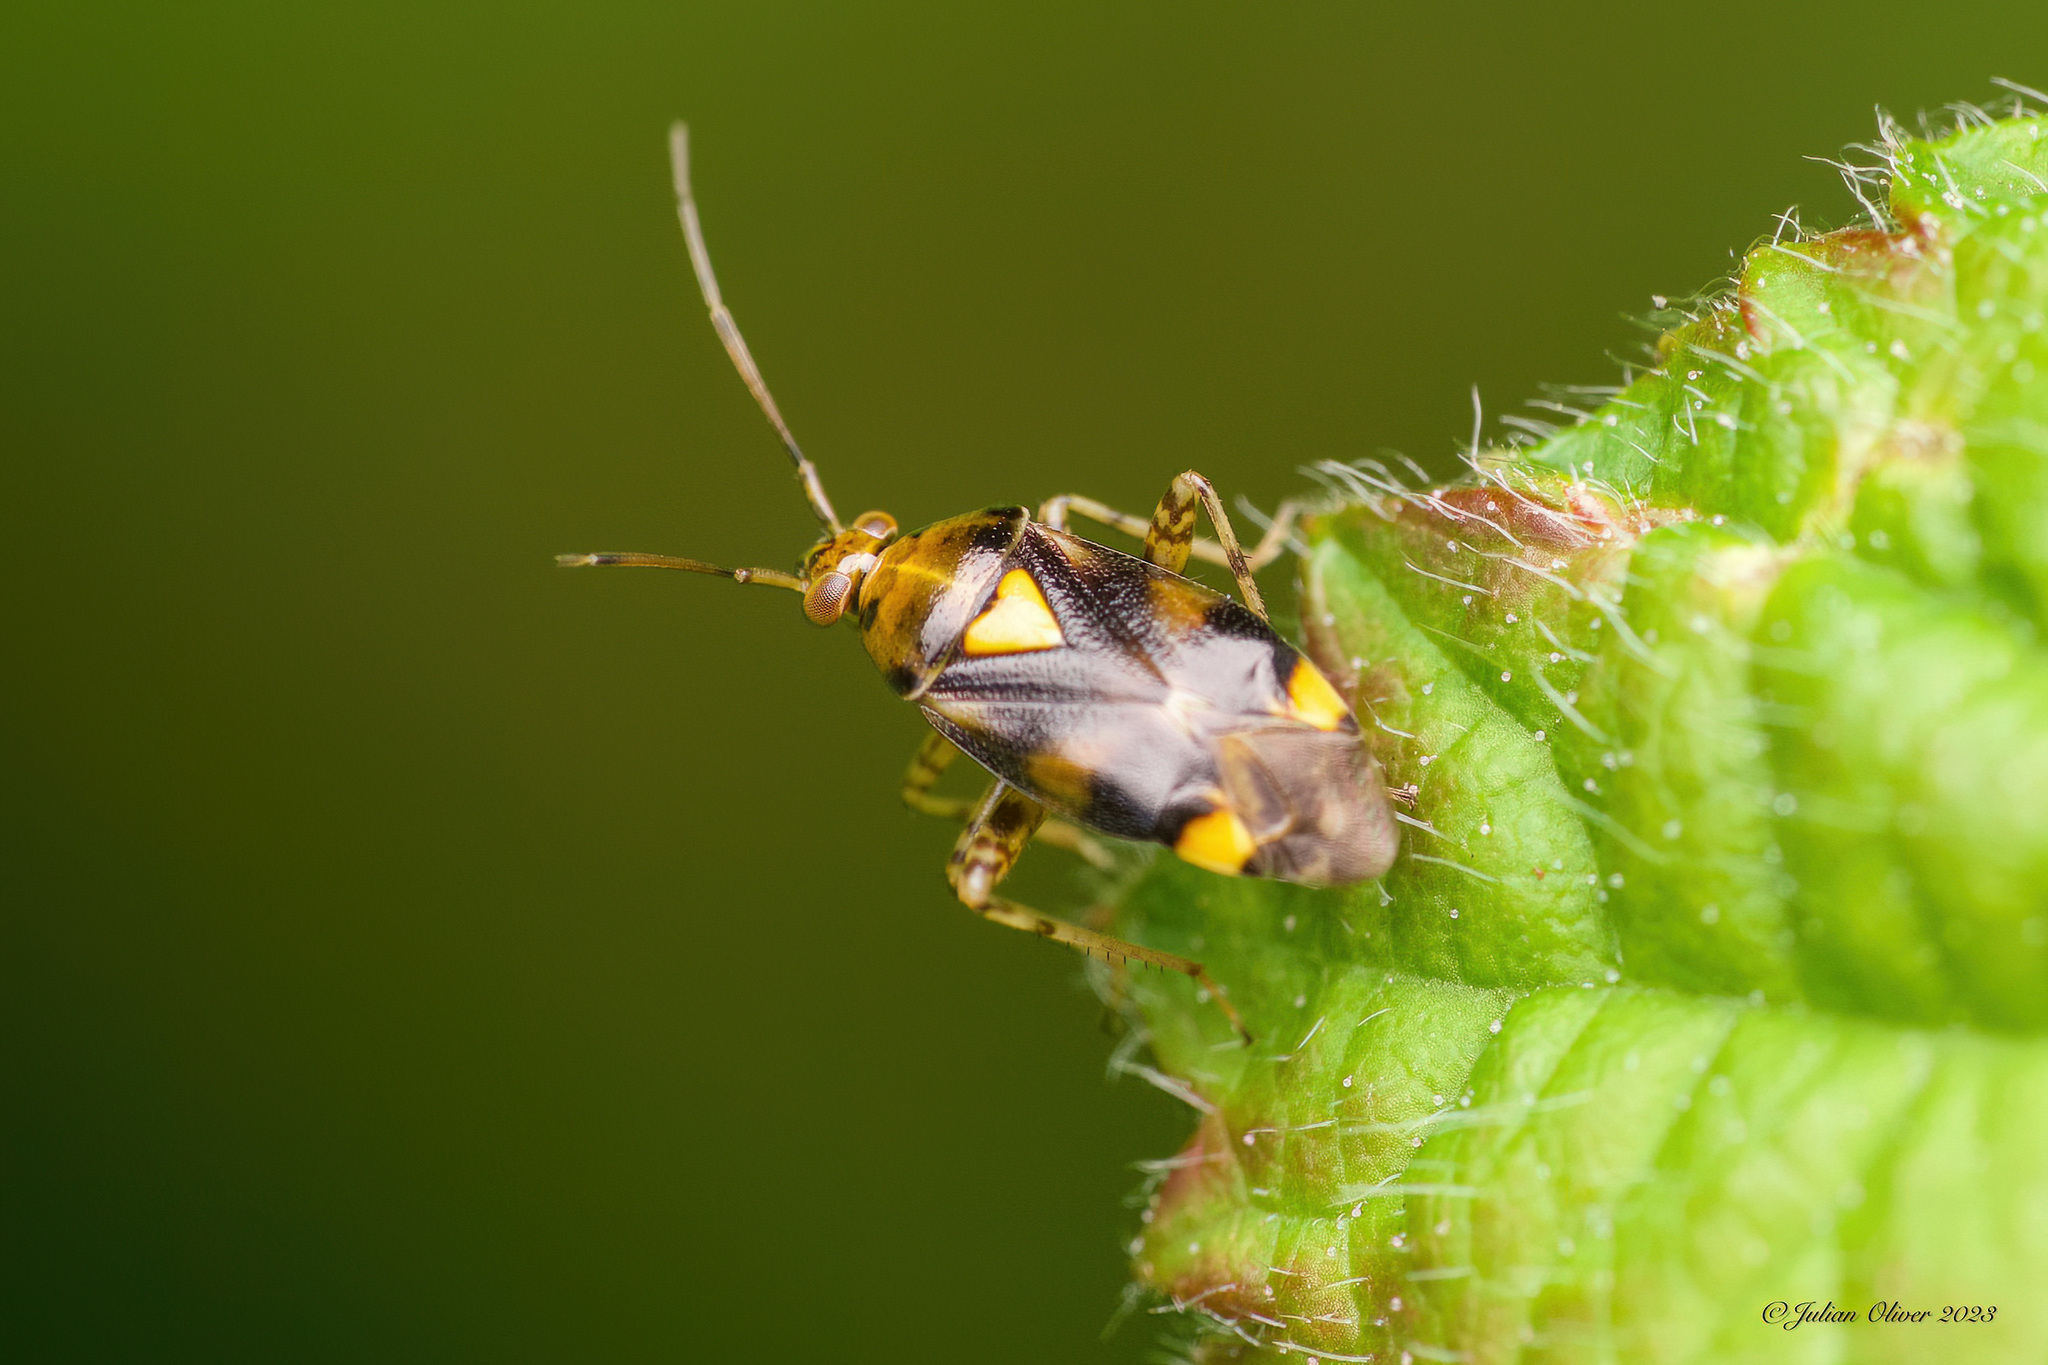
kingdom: Animalia
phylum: Arthropoda
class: Insecta
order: Hemiptera
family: Miridae
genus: Liocoris
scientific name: Liocoris tripustulatus
